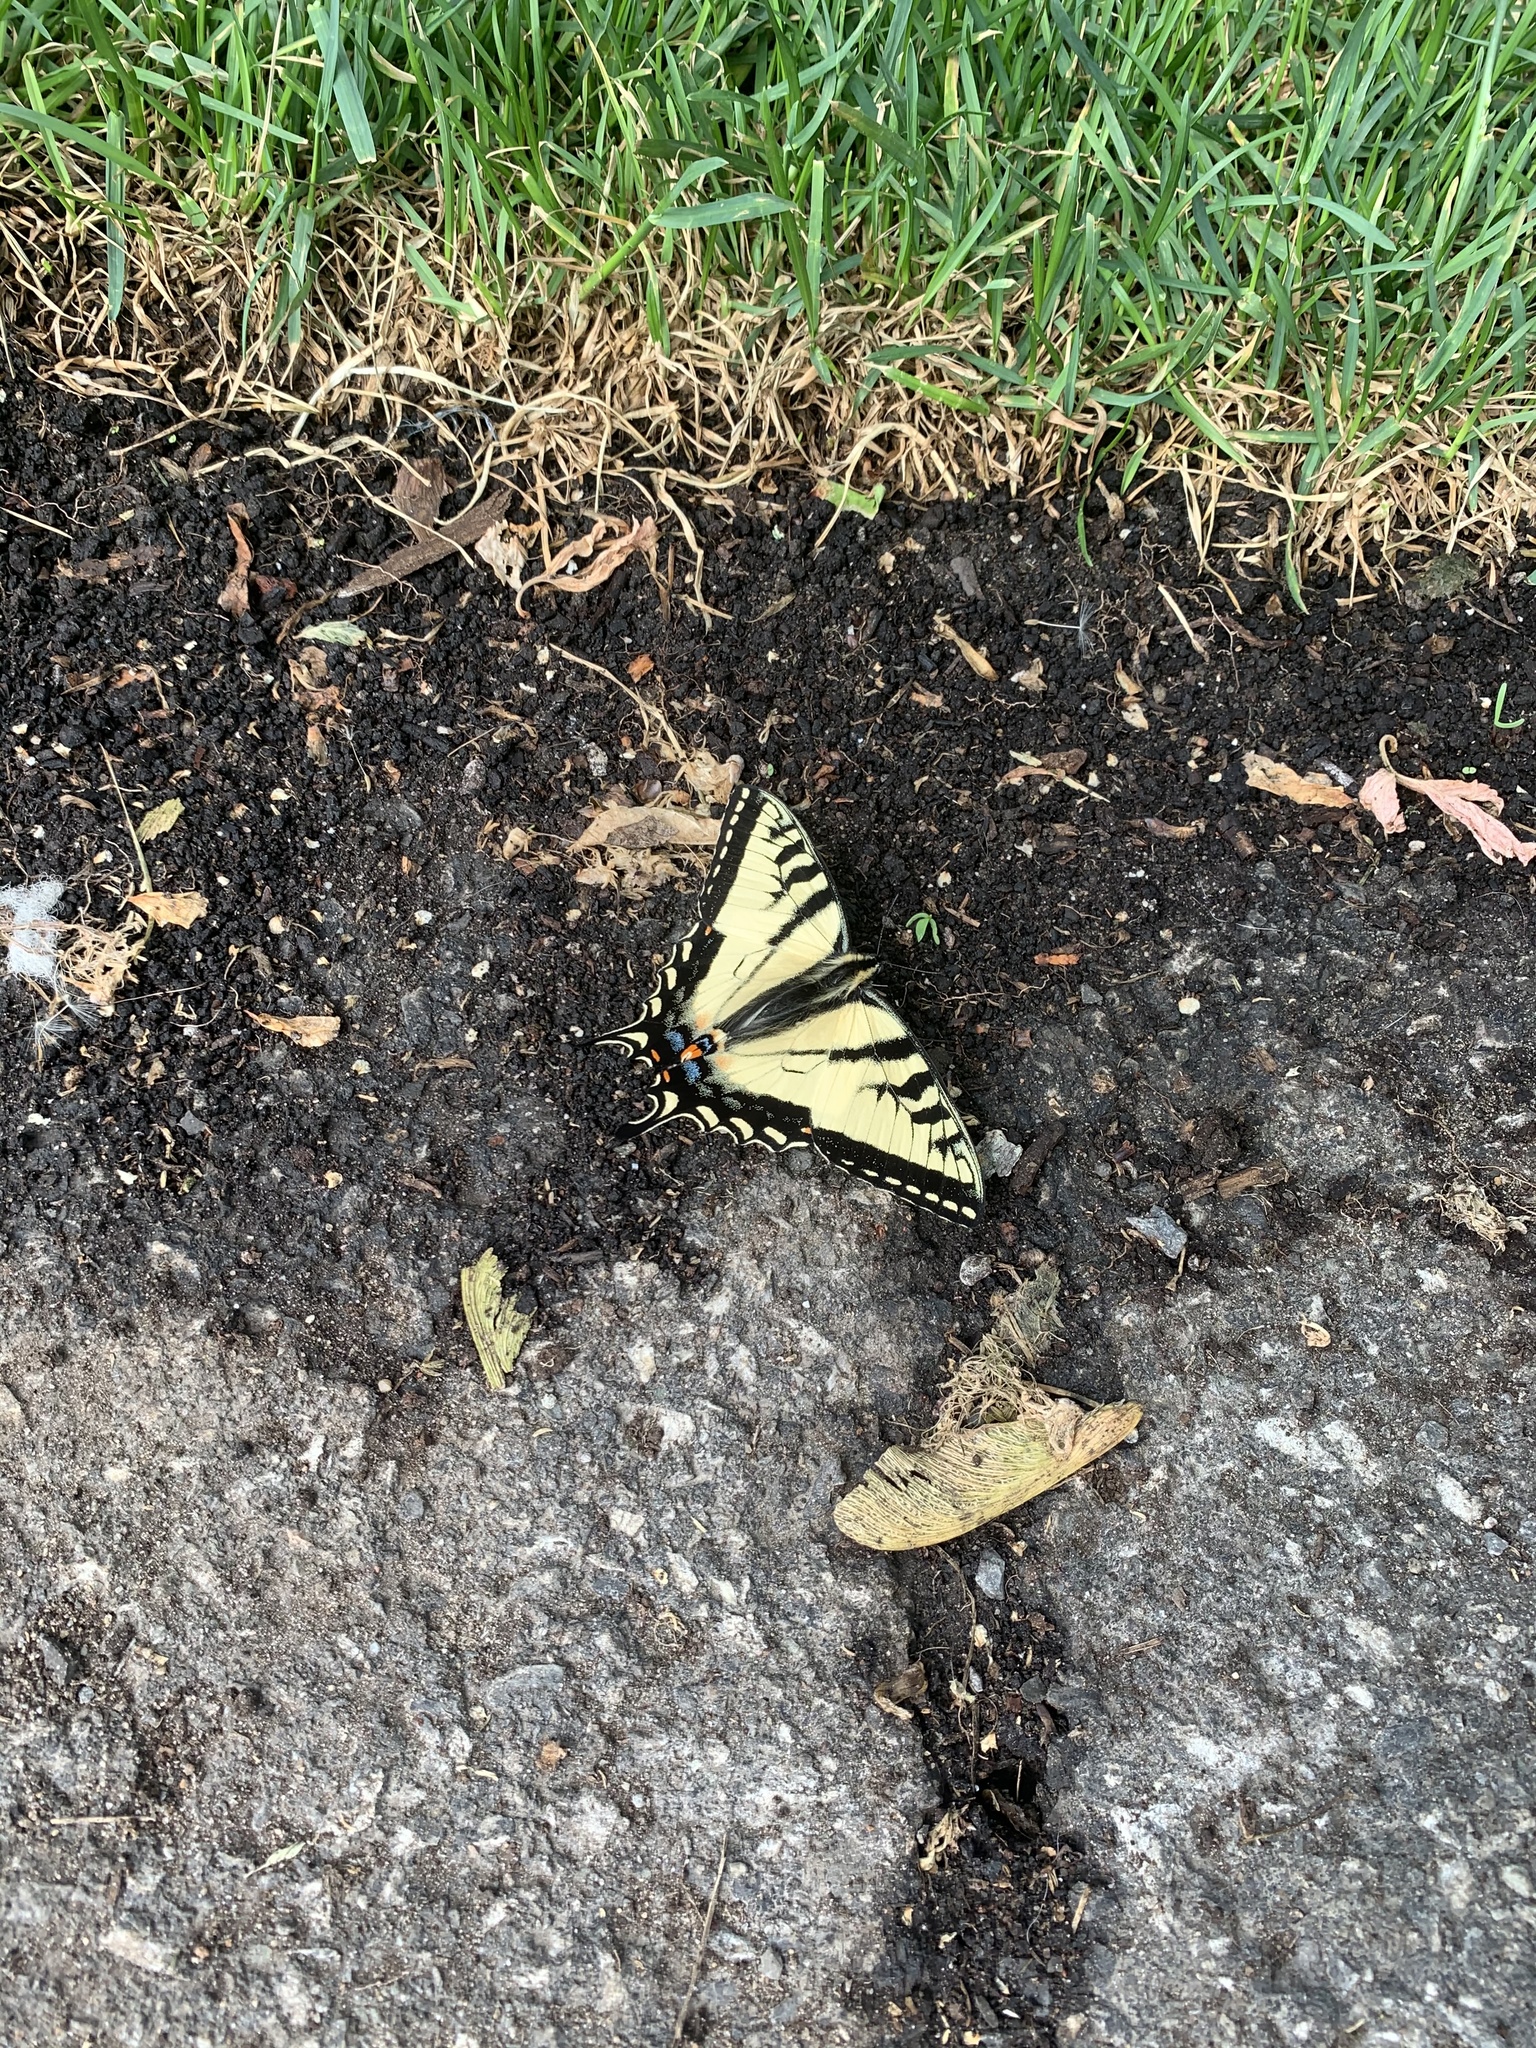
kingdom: Animalia
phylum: Arthropoda
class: Insecta
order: Lepidoptera
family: Papilionidae
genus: Papilio
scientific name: Papilio canadensis
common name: Canadian tiger swallowtail
